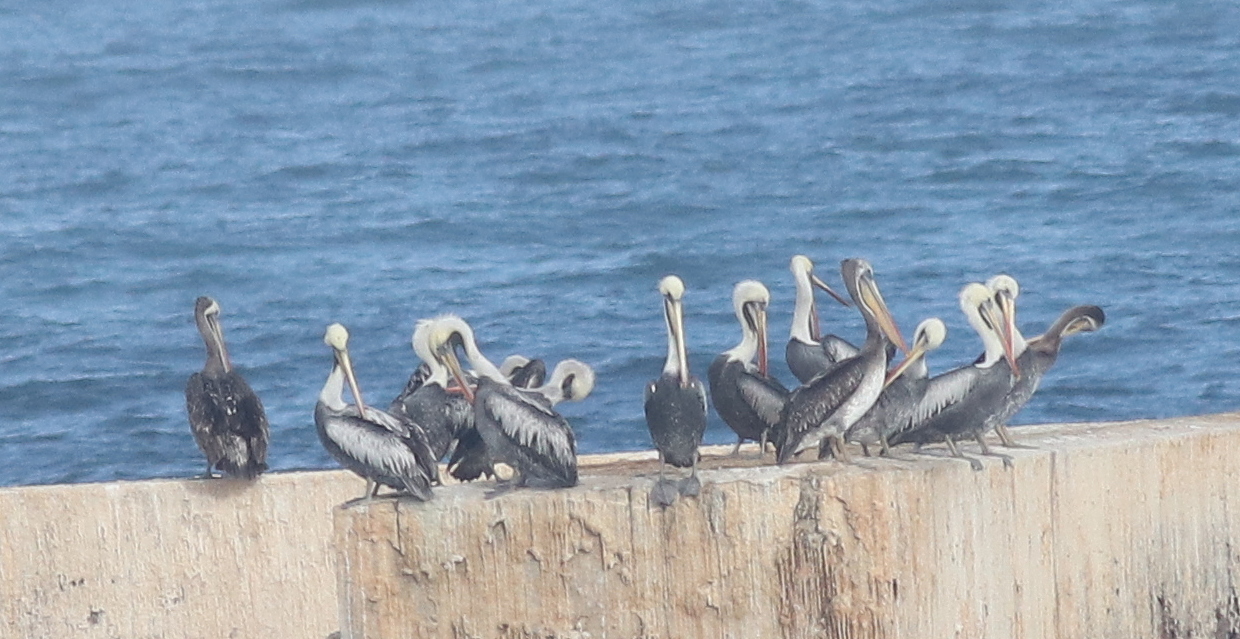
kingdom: Animalia
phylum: Chordata
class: Aves
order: Pelecaniformes
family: Pelecanidae
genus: Pelecanus
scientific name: Pelecanus thagus
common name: Peruvian pelican
